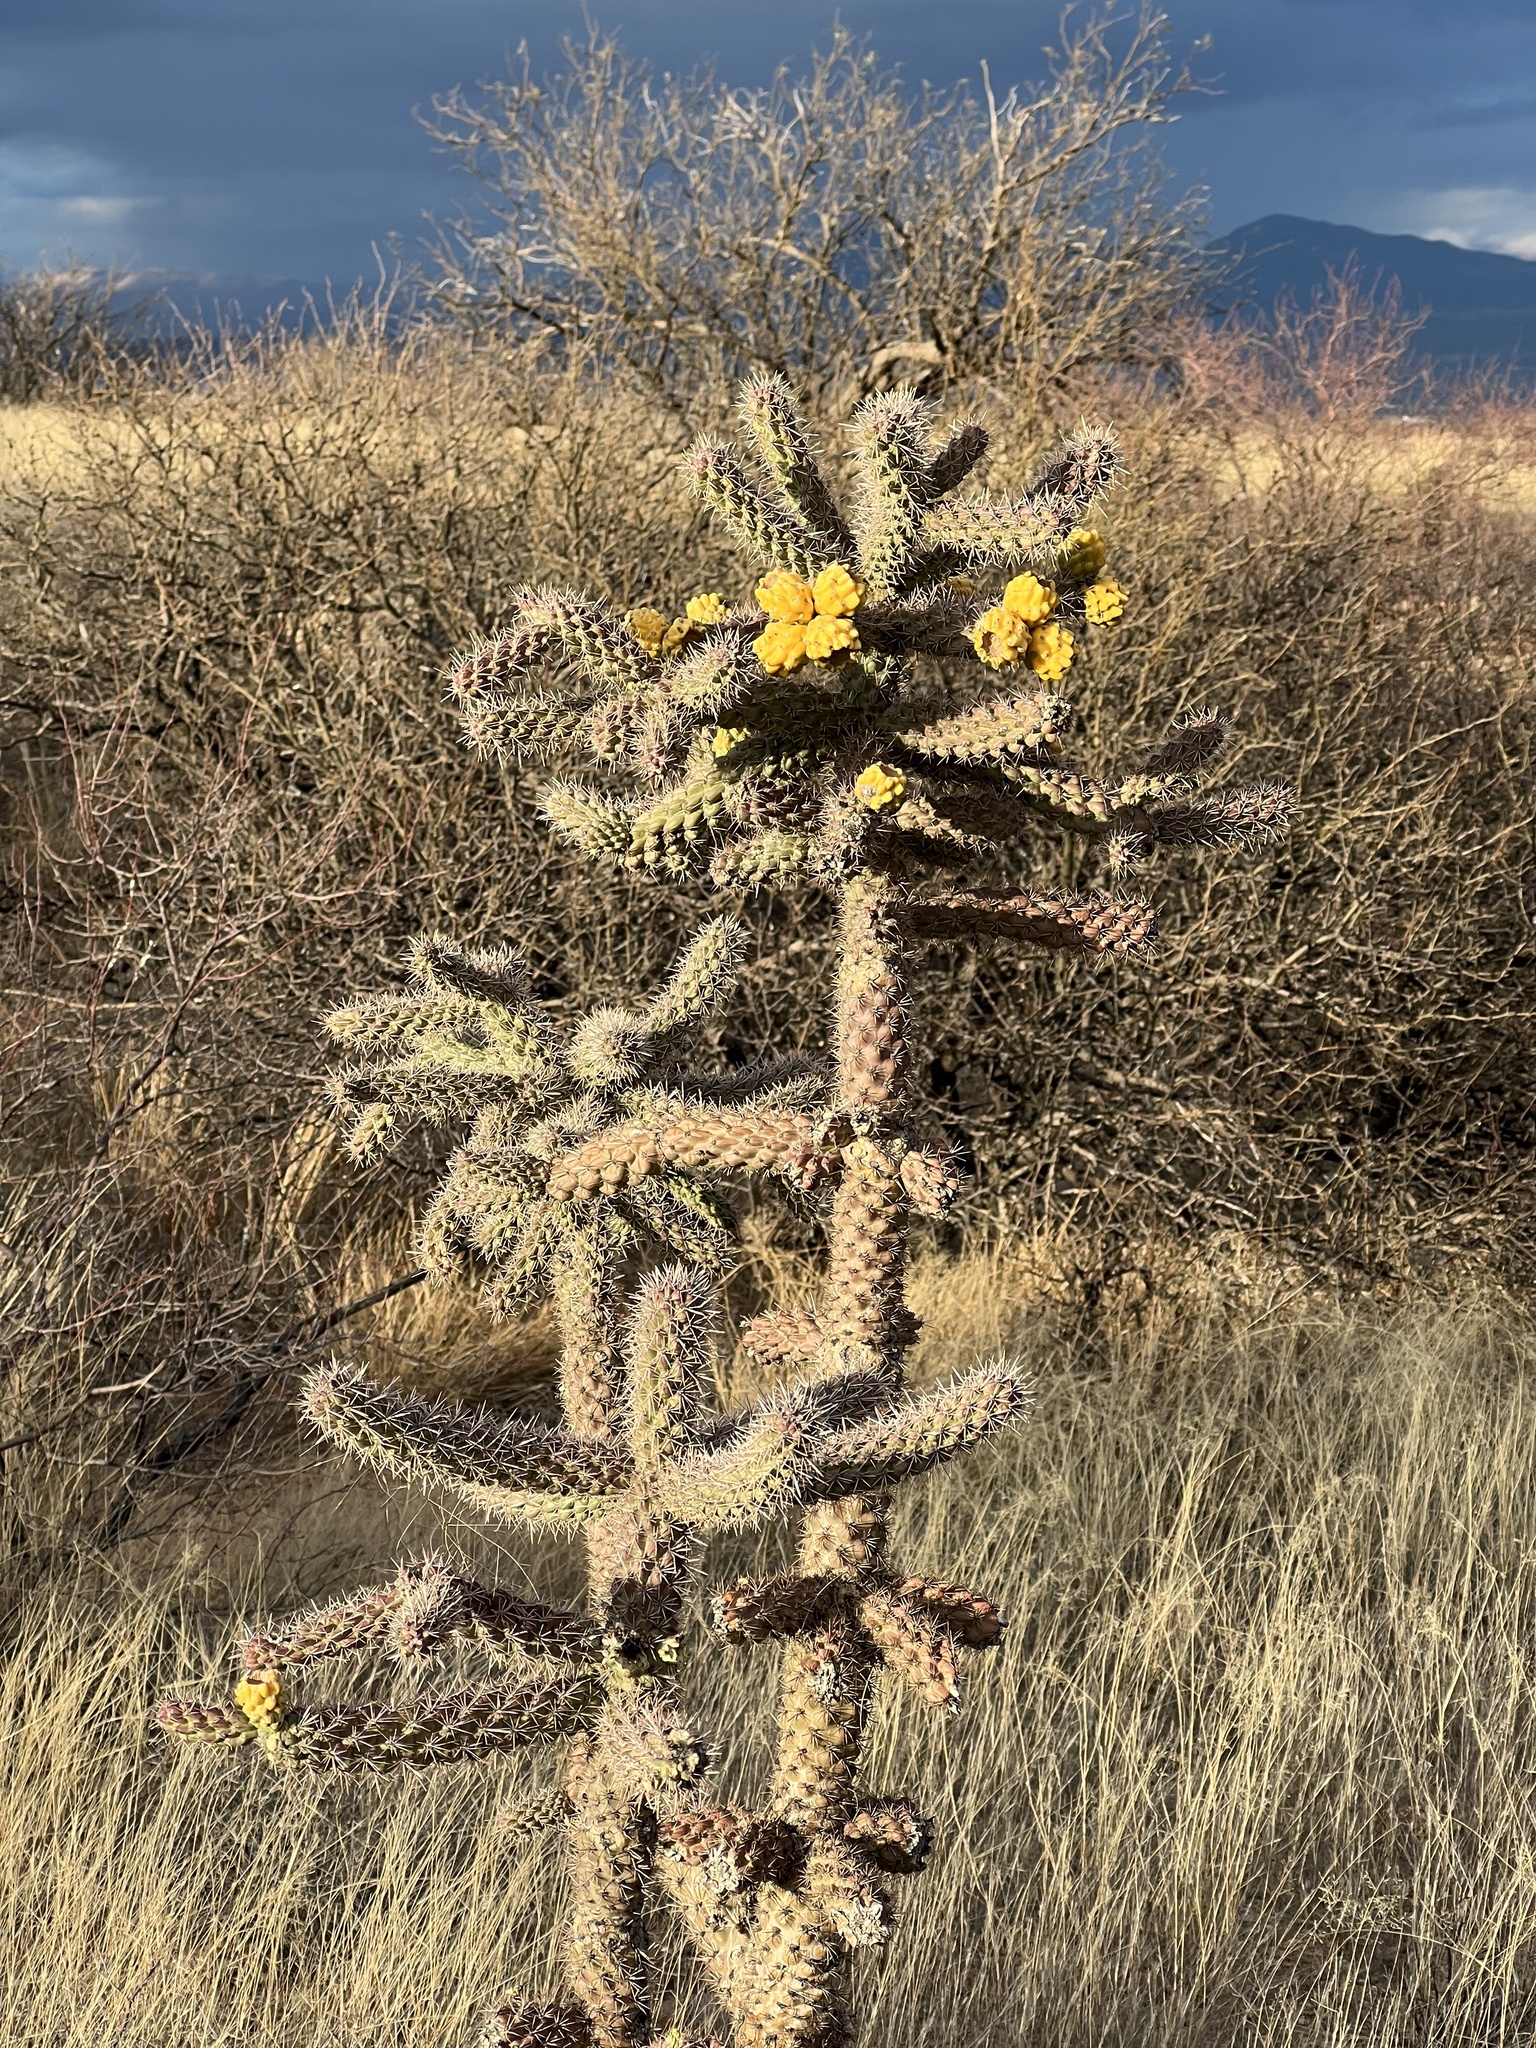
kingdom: Plantae
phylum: Tracheophyta
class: Magnoliopsida
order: Caryophyllales
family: Cactaceae
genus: Cylindropuntia
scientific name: Cylindropuntia imbricata
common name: Candelabrum cactus
